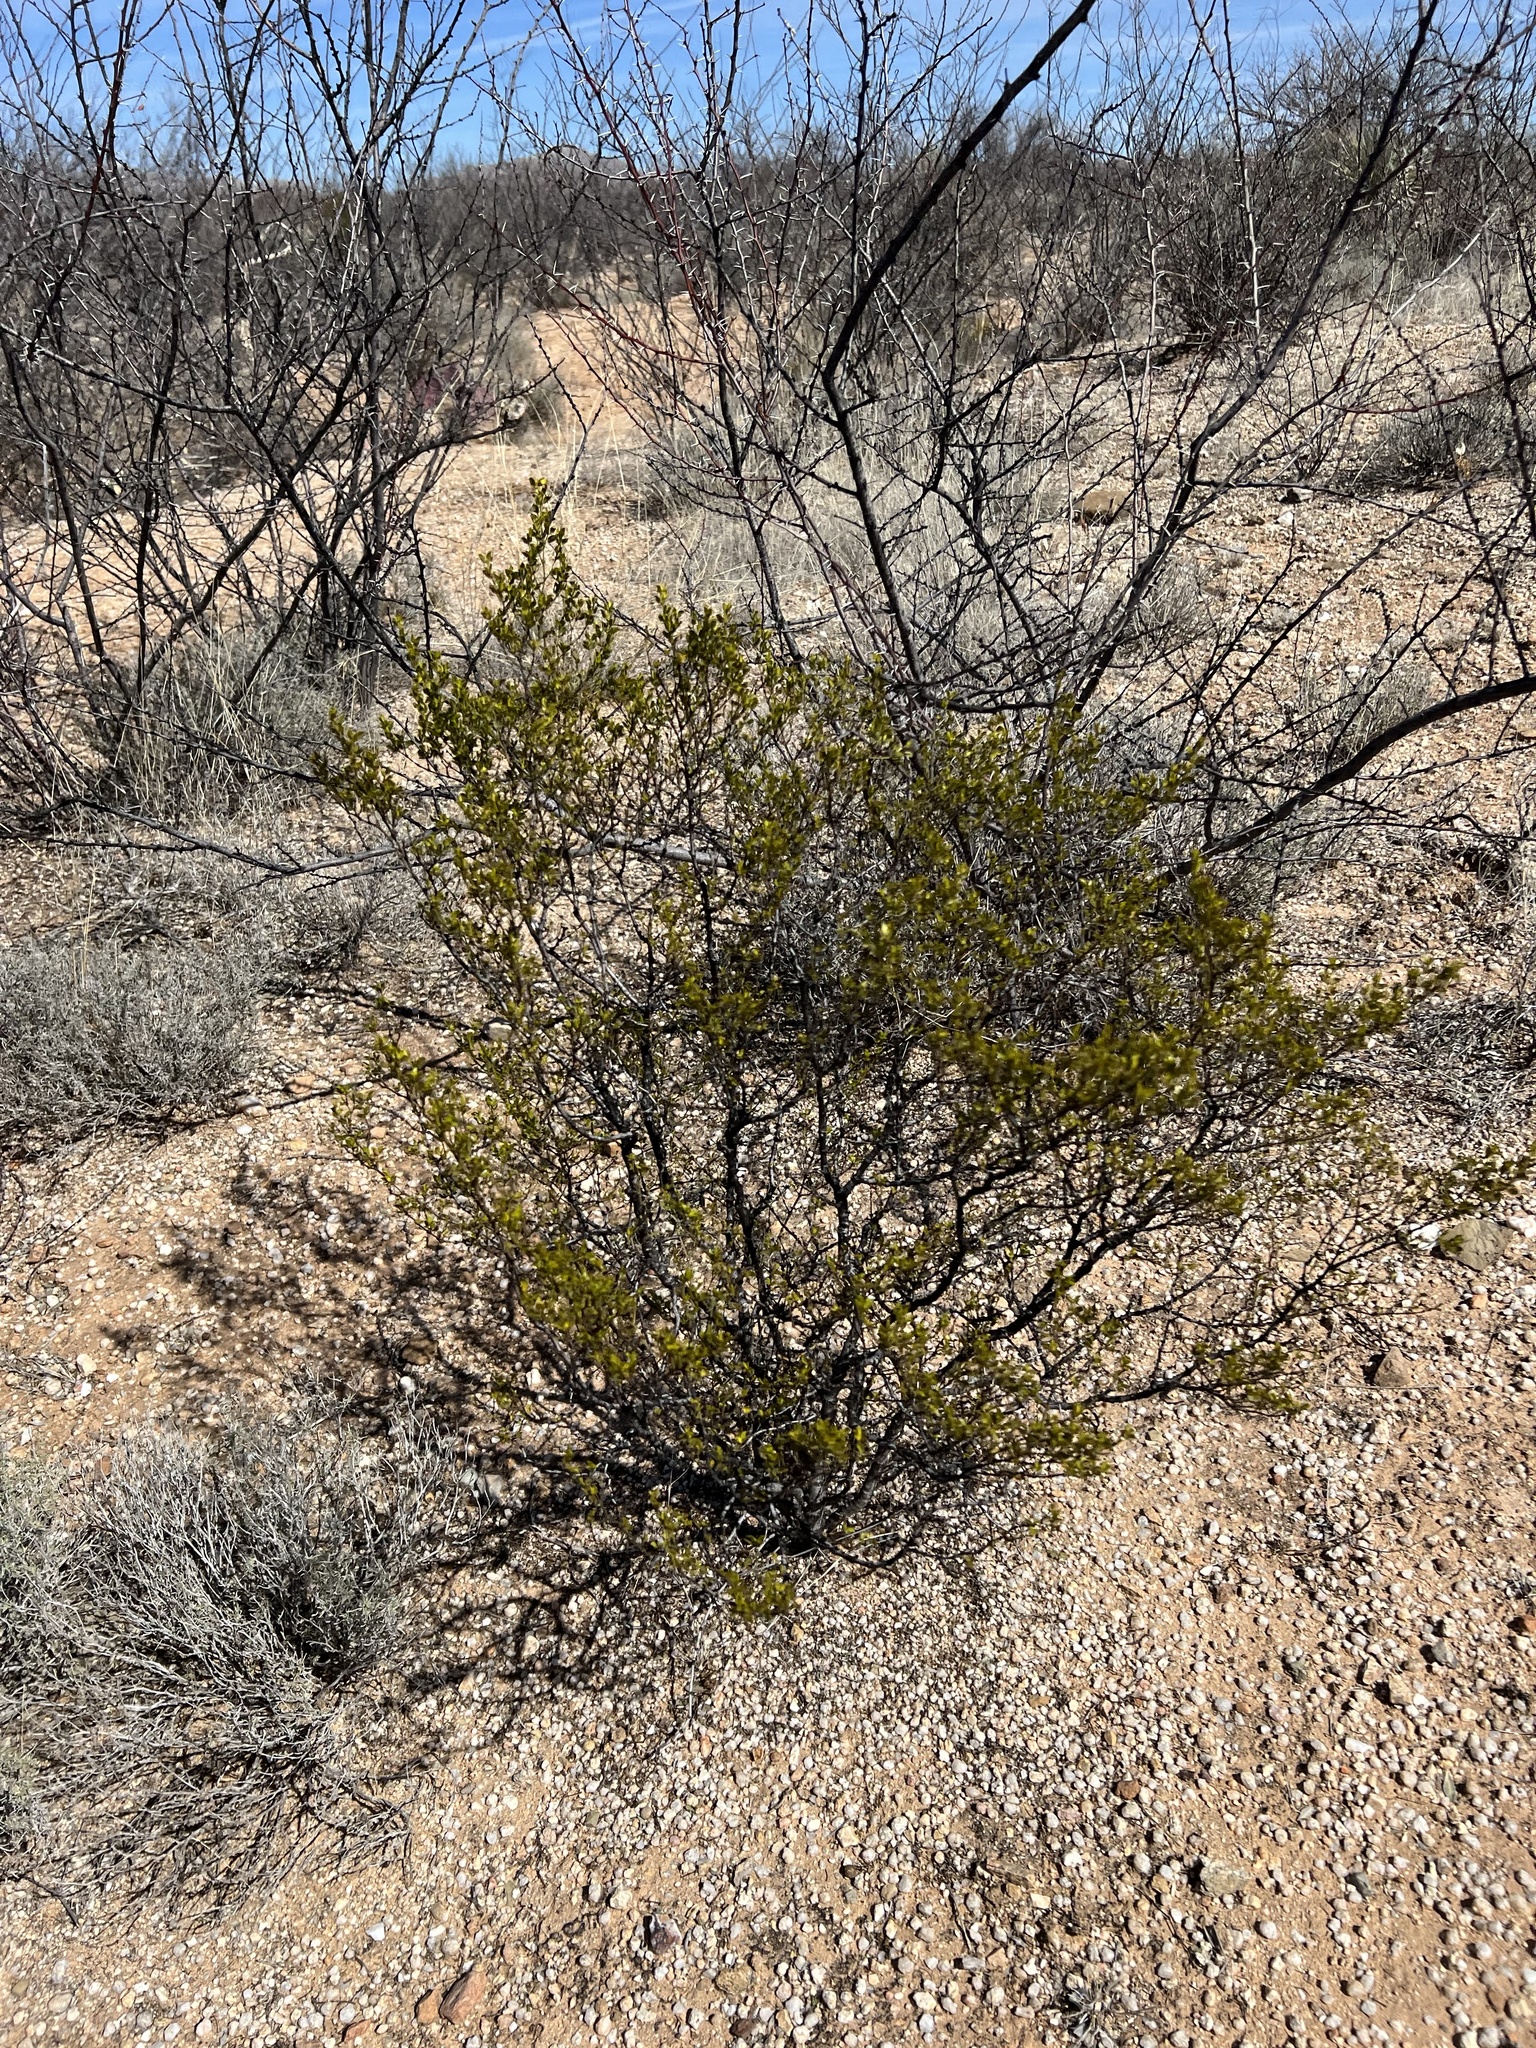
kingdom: Plantae
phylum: Tracheophyta
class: Magnoliopsida
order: Zygophyllales
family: Zygophyllaceae
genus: Larrea
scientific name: Larrea tridentata
